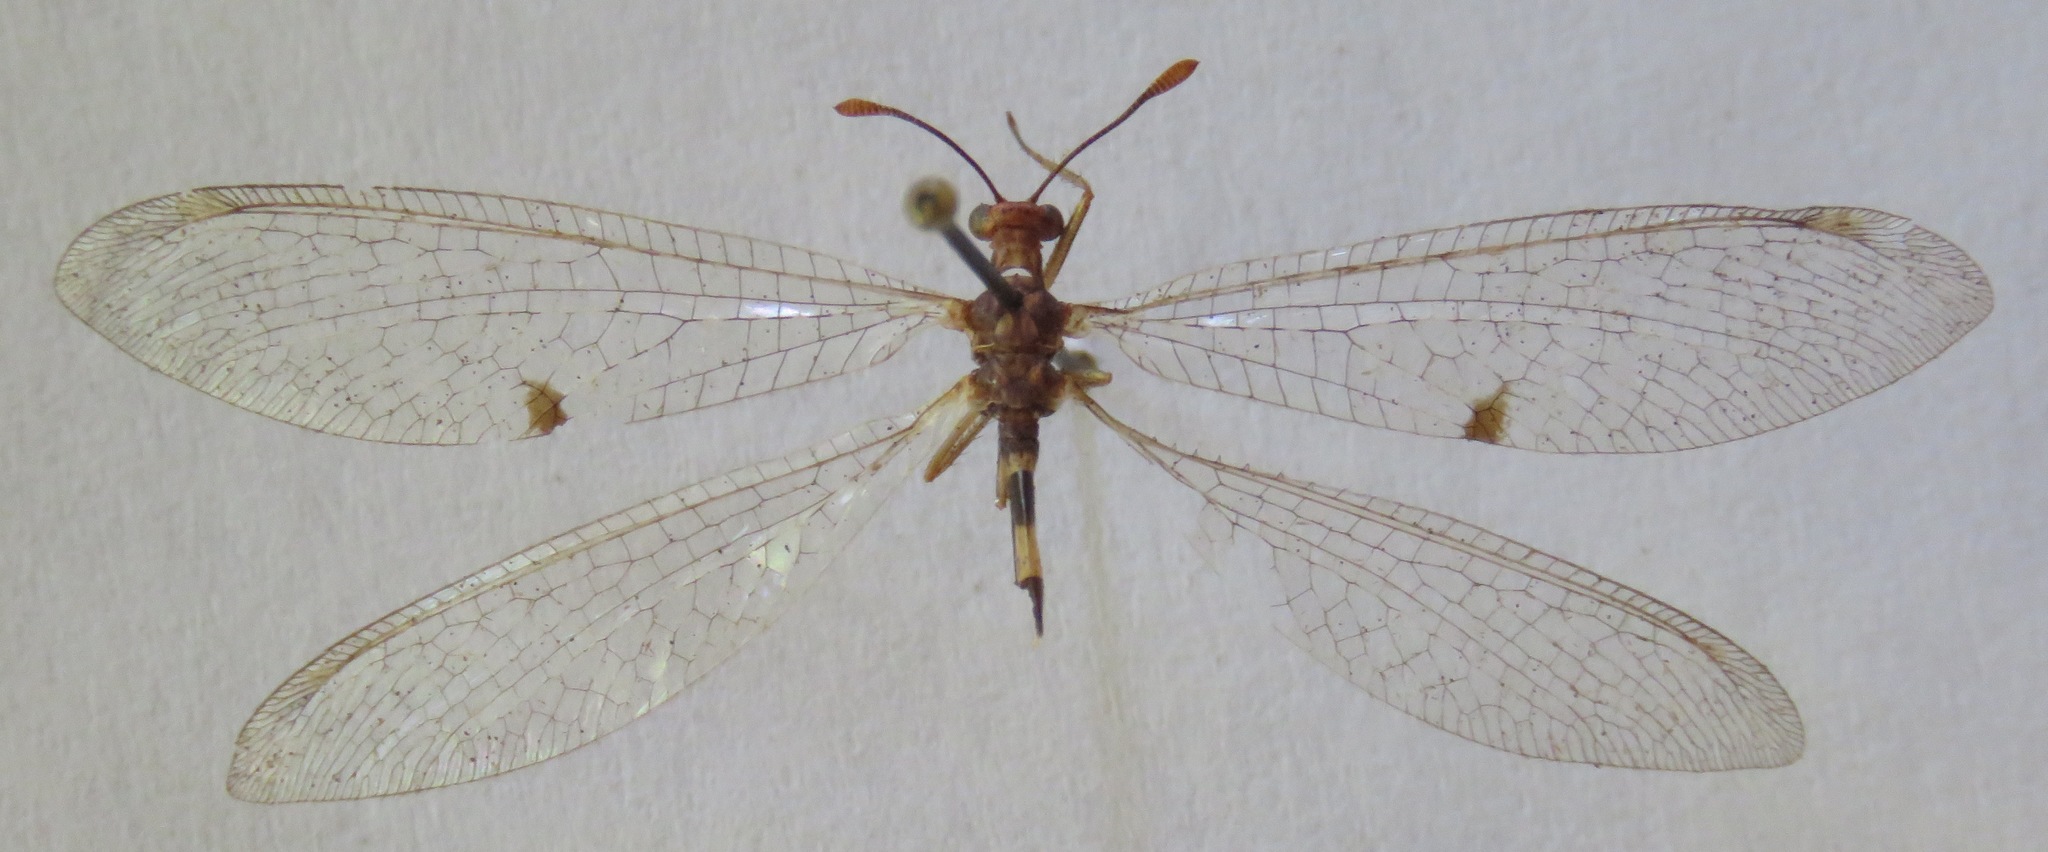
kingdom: Animalia
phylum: Arthropoda
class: Insecta
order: Neuroptera
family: Myrmeleontidae
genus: Megistopus
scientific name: Megistopus flavicornis
